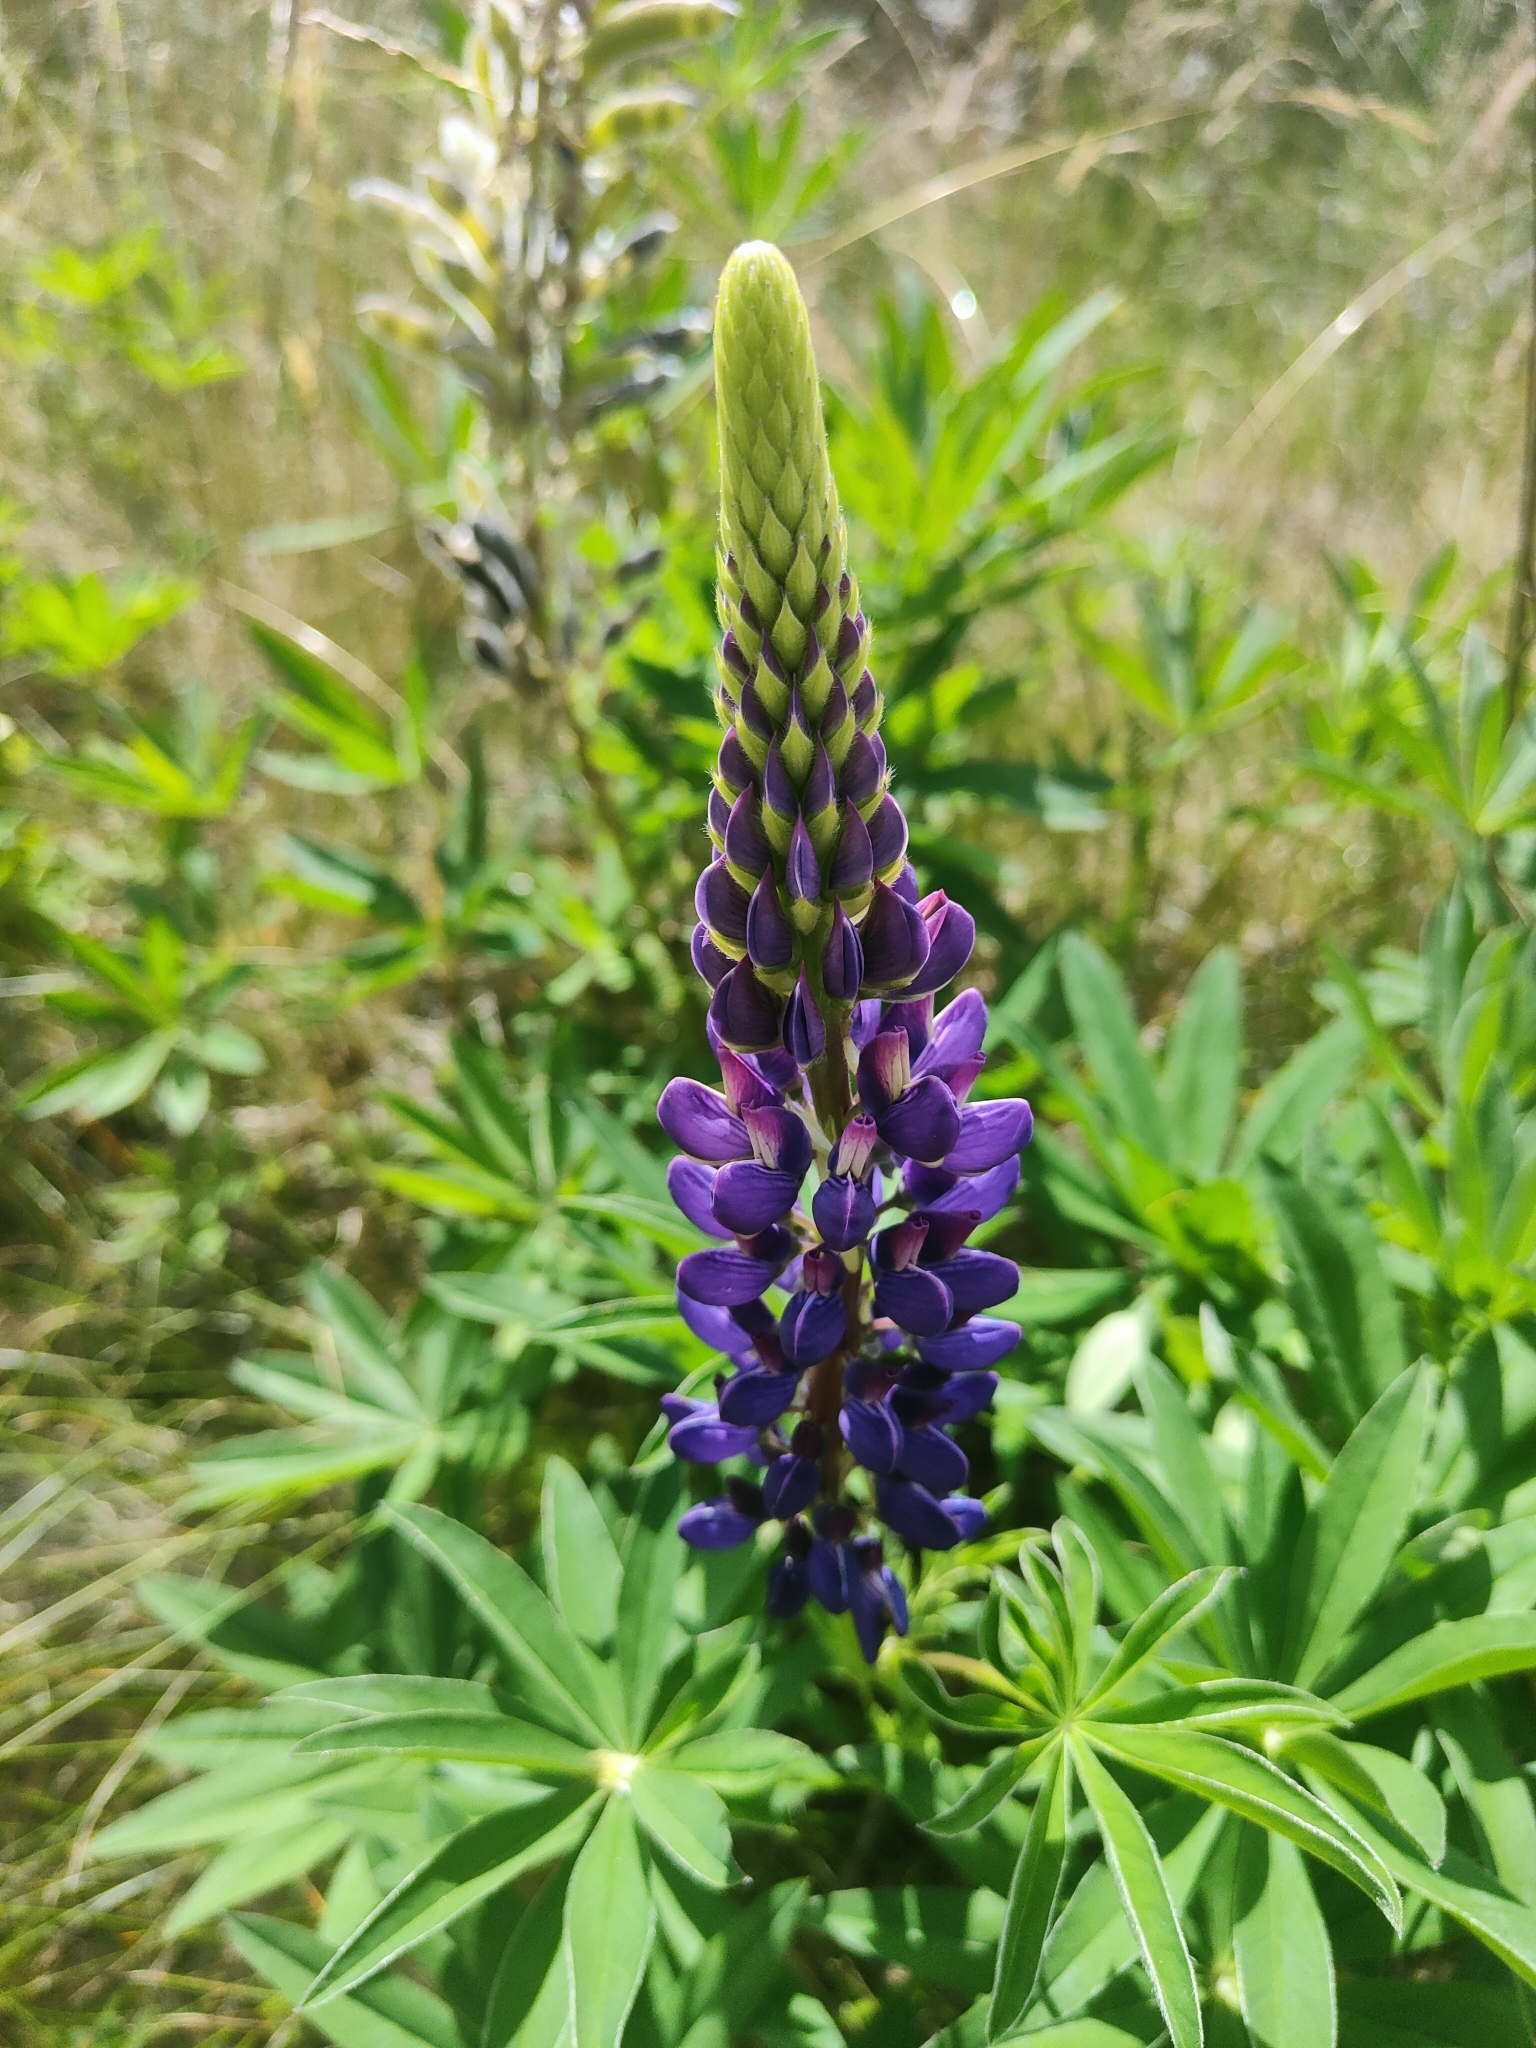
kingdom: Plantae
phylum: Tracheophyta
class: Magnoliopsida
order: Fabales
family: Fabaceae
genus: Lupinus
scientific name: Lupinus polyphyllus
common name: Garden lupin
